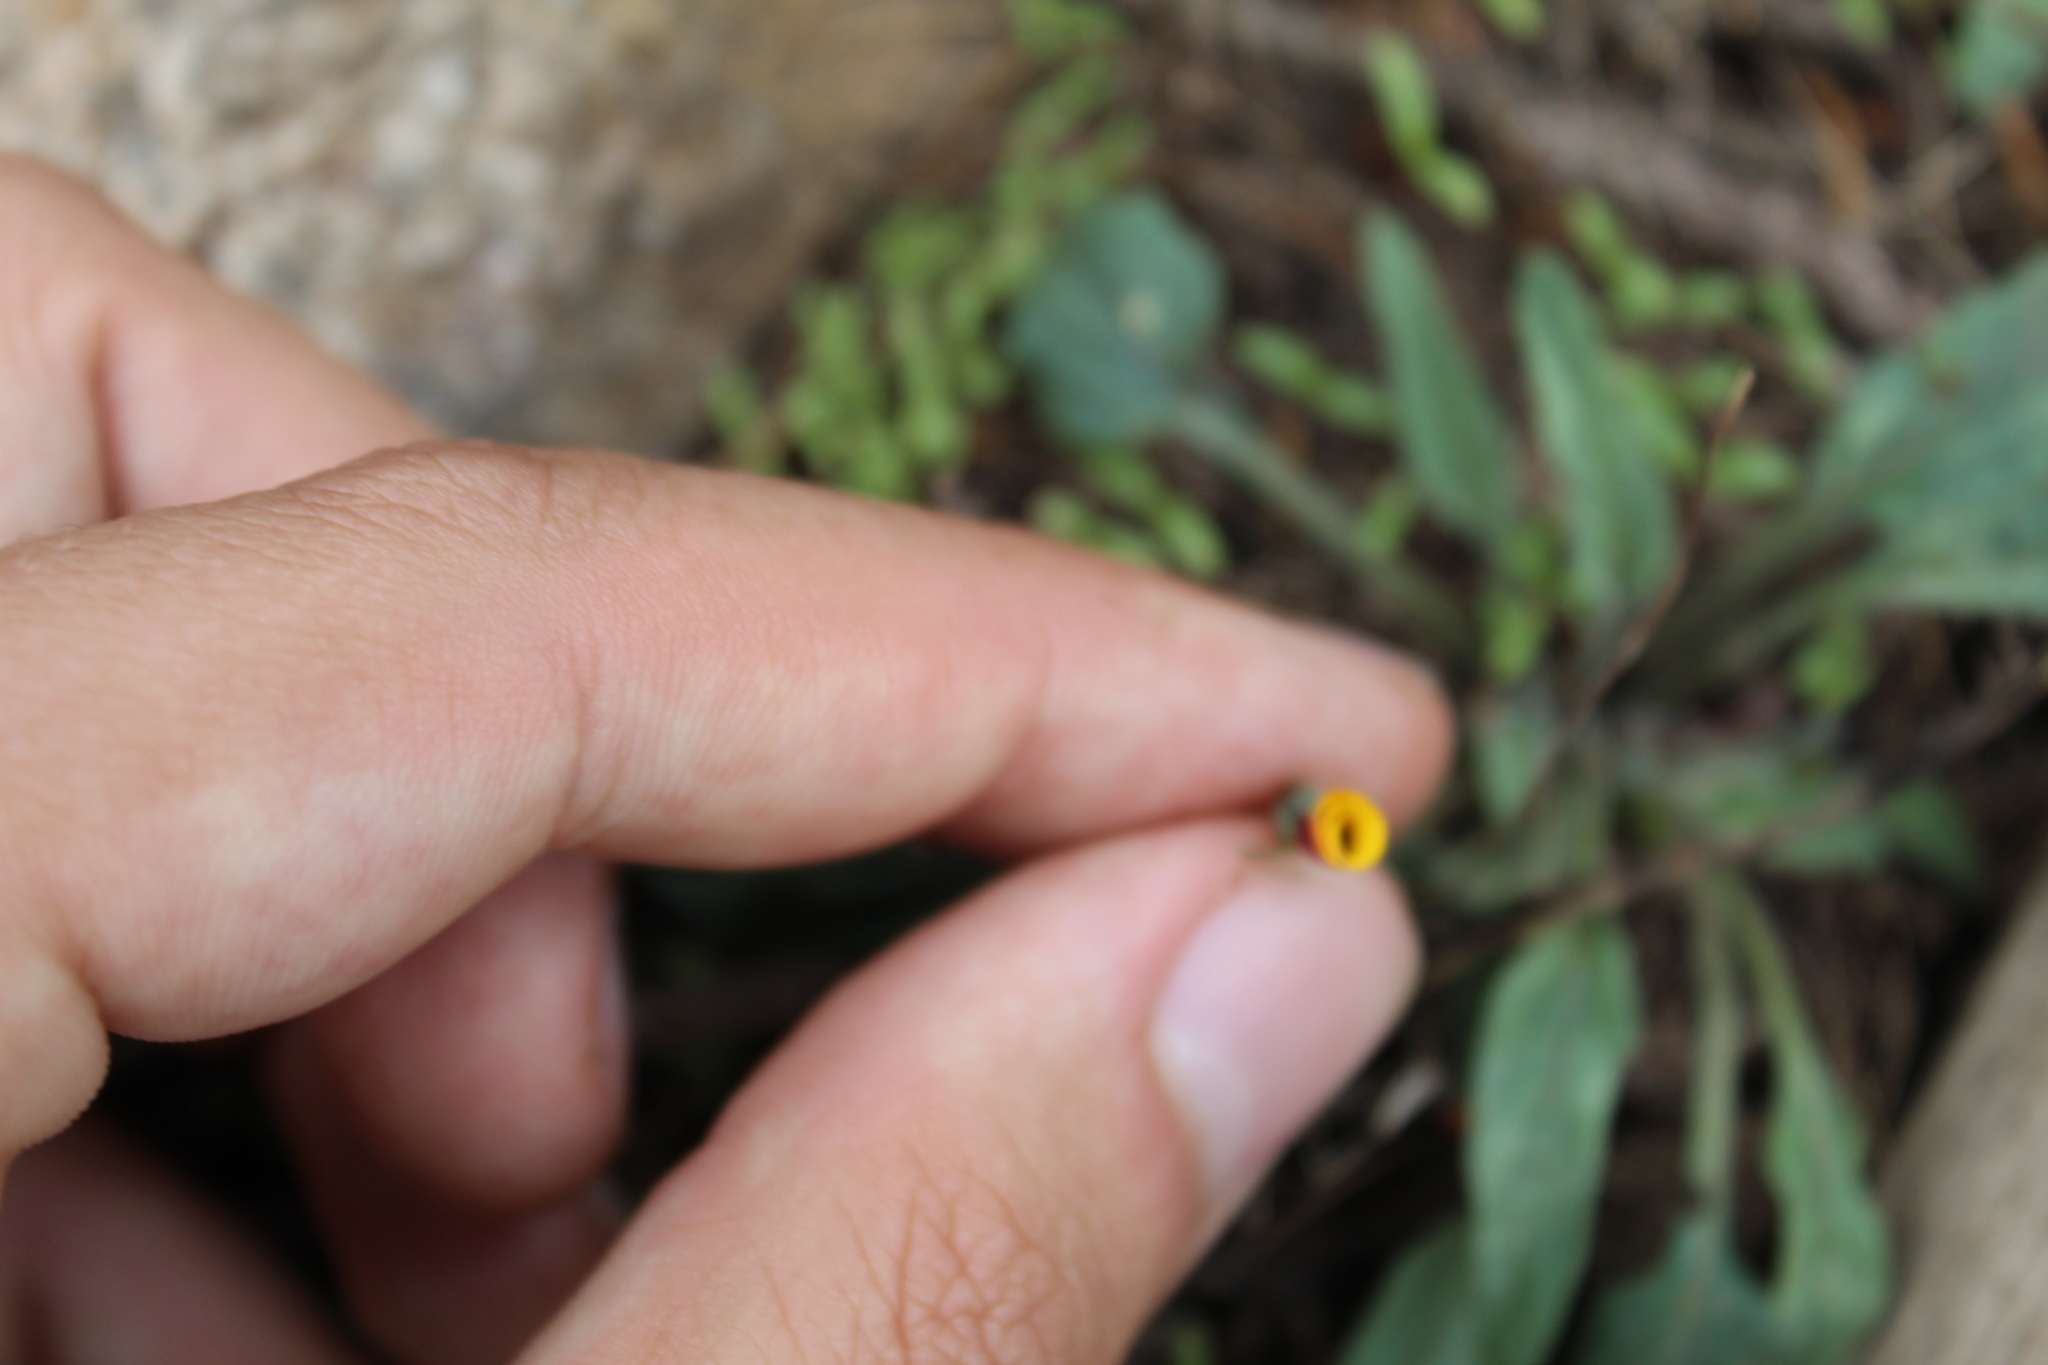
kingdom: Plantae
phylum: Tracheophyta
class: Magnoliopsida
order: Malpighiales
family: Violaceae
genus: Viola
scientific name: Viola pinetorum
